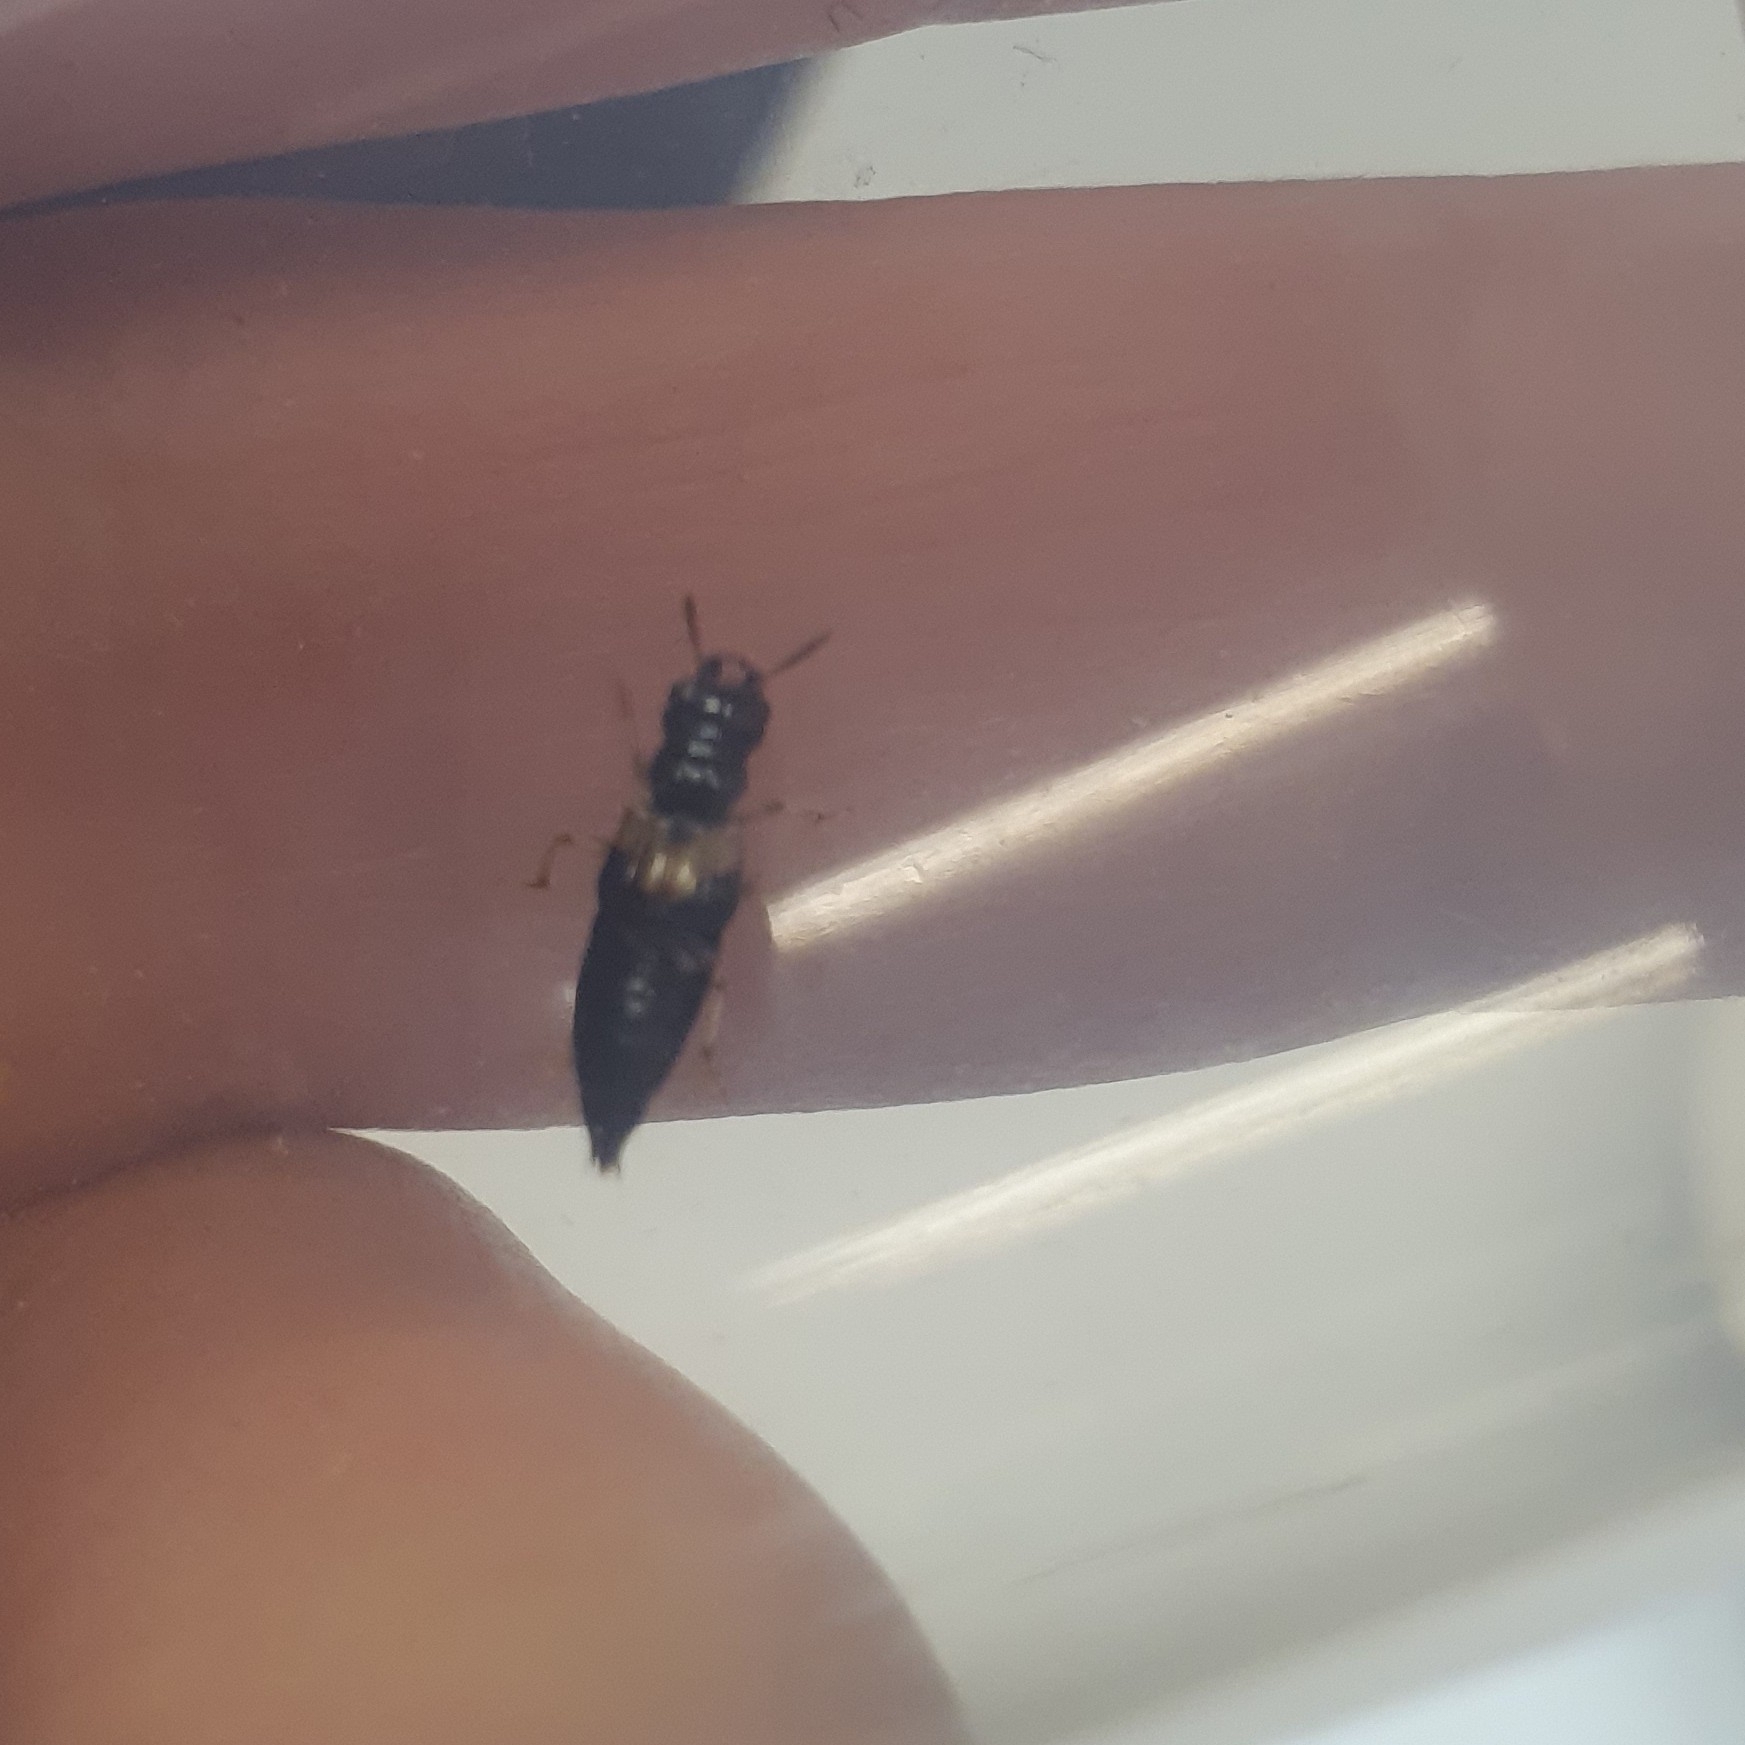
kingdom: Animalia
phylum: Arthropoda
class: Insecta
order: Coleoptera
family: Staphylinidae
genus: Oxyporus
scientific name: Oxyporus maxillosus
